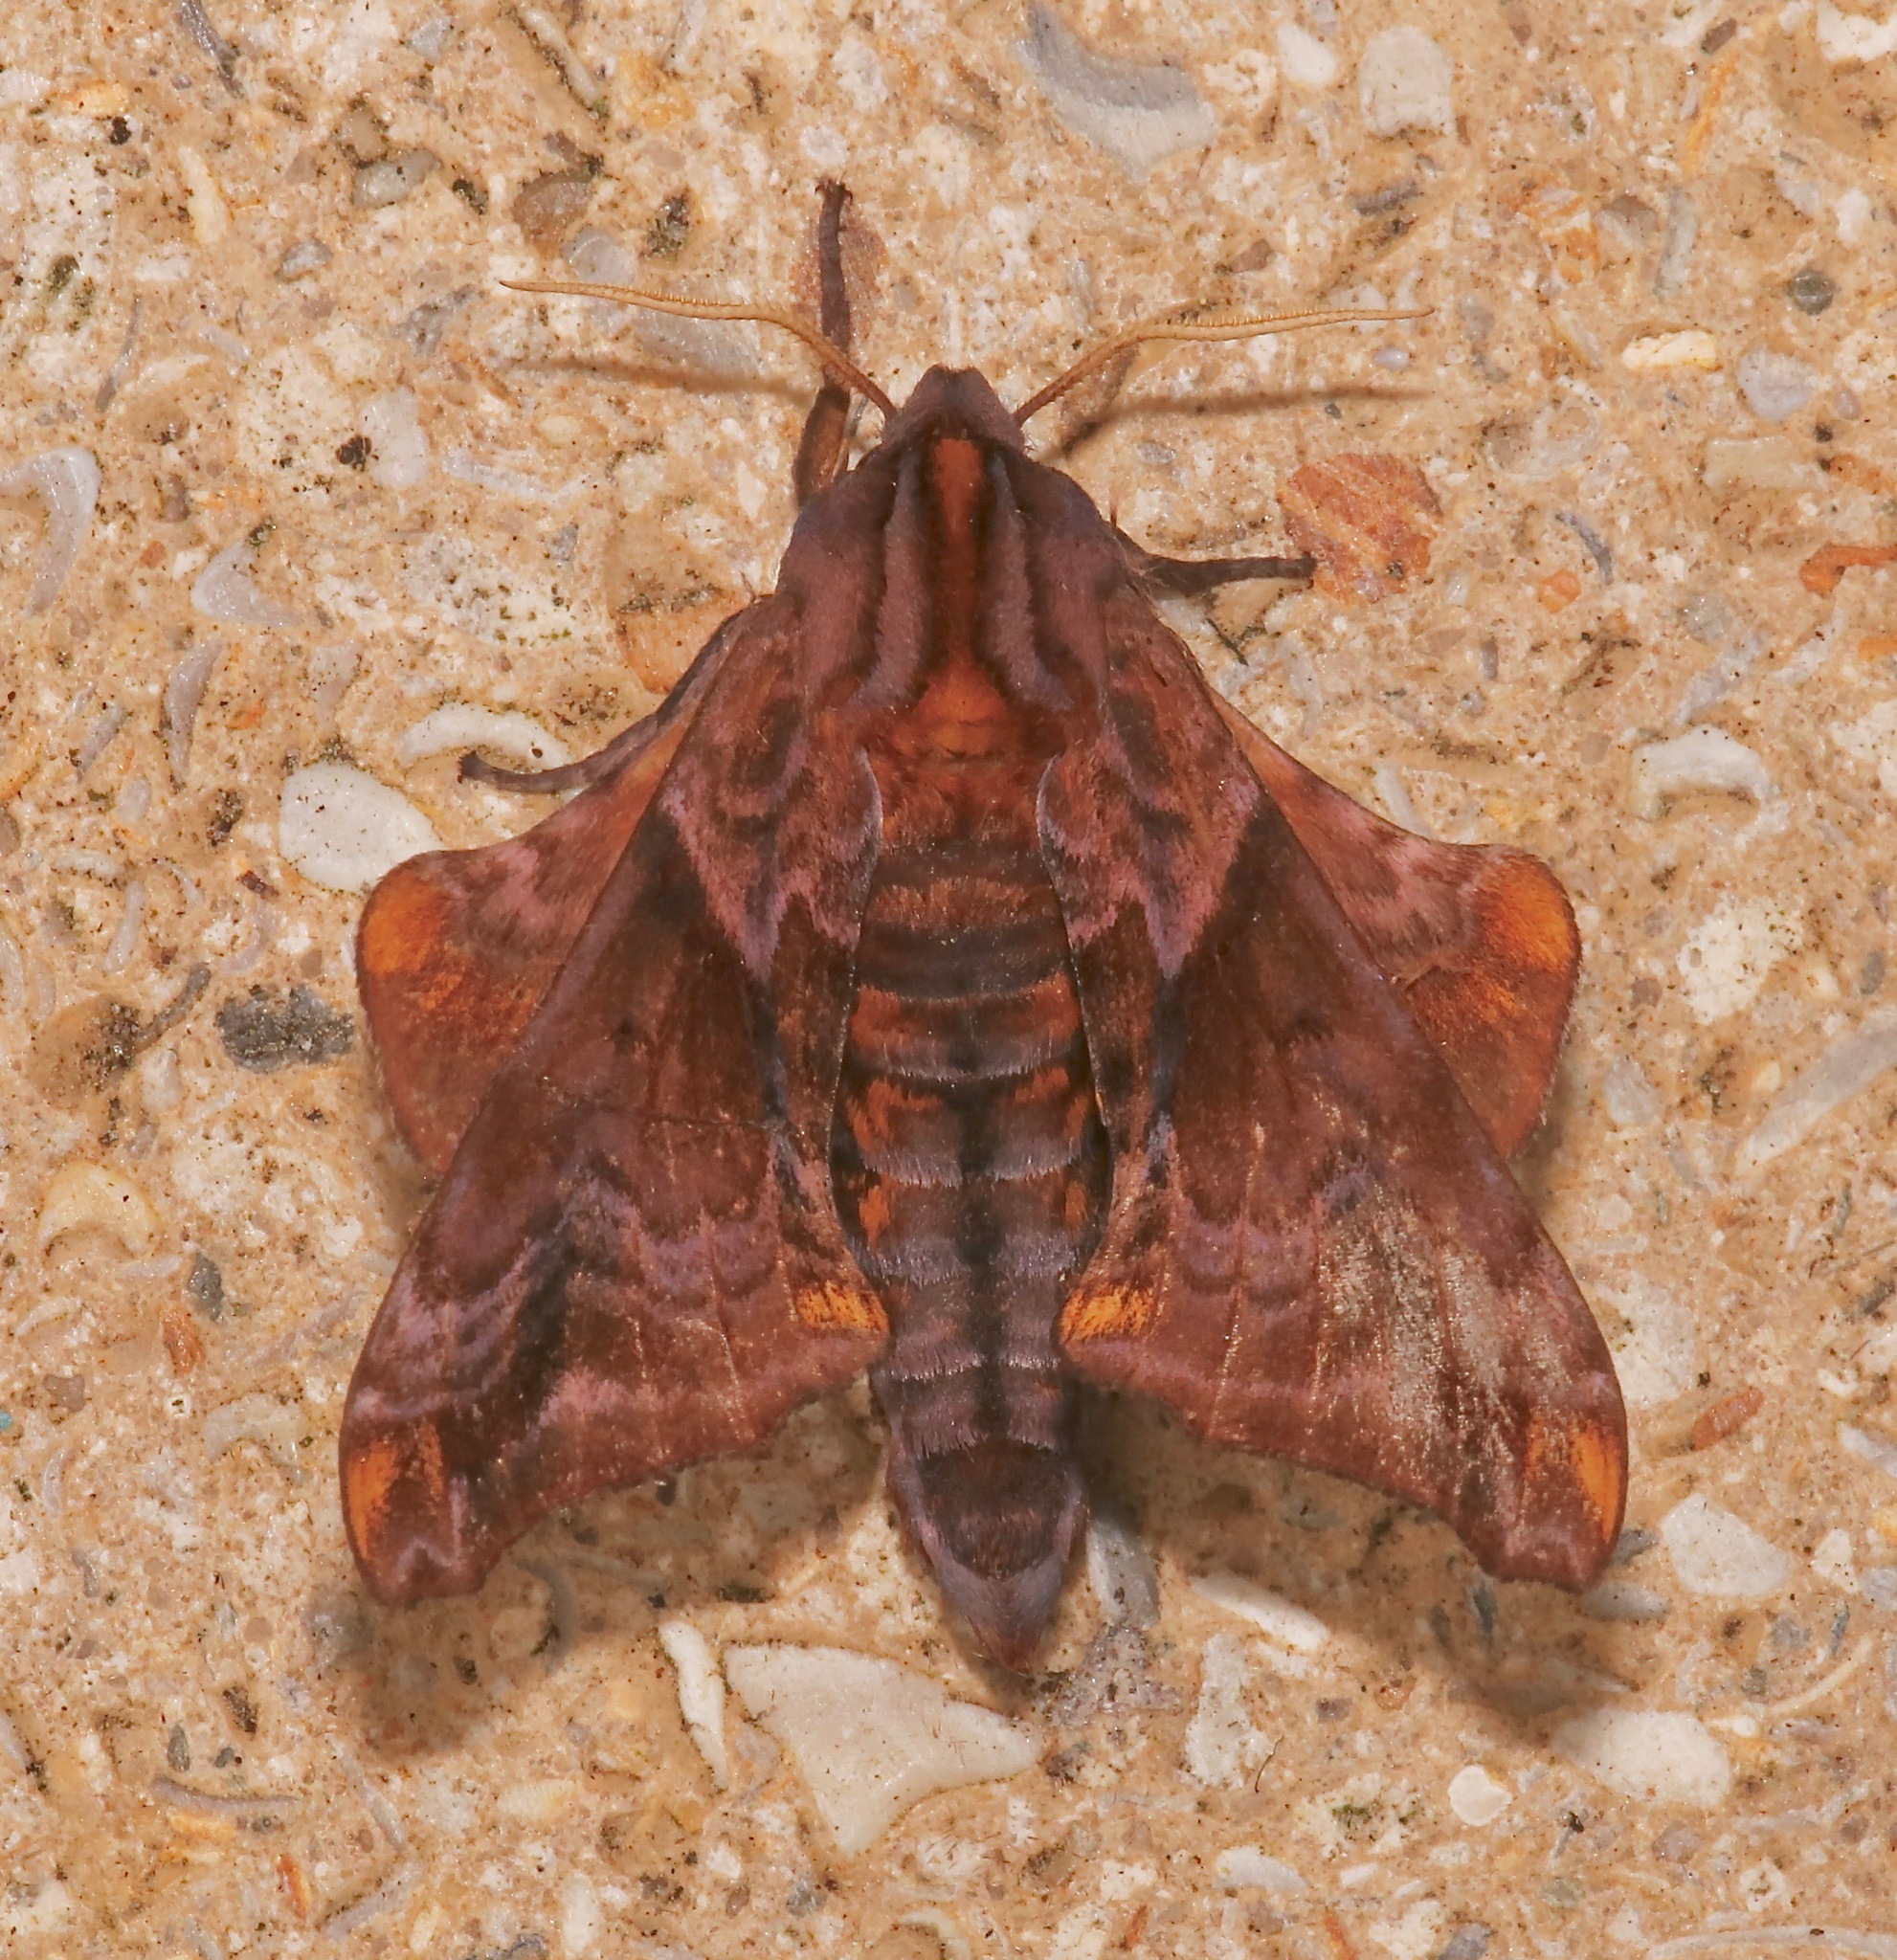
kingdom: Animalia
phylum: Arthropoda
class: Insecta
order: Lepidoptera
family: Sphingidae
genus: Paonias
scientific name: Paonias myops
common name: Small-eyed sphinx
